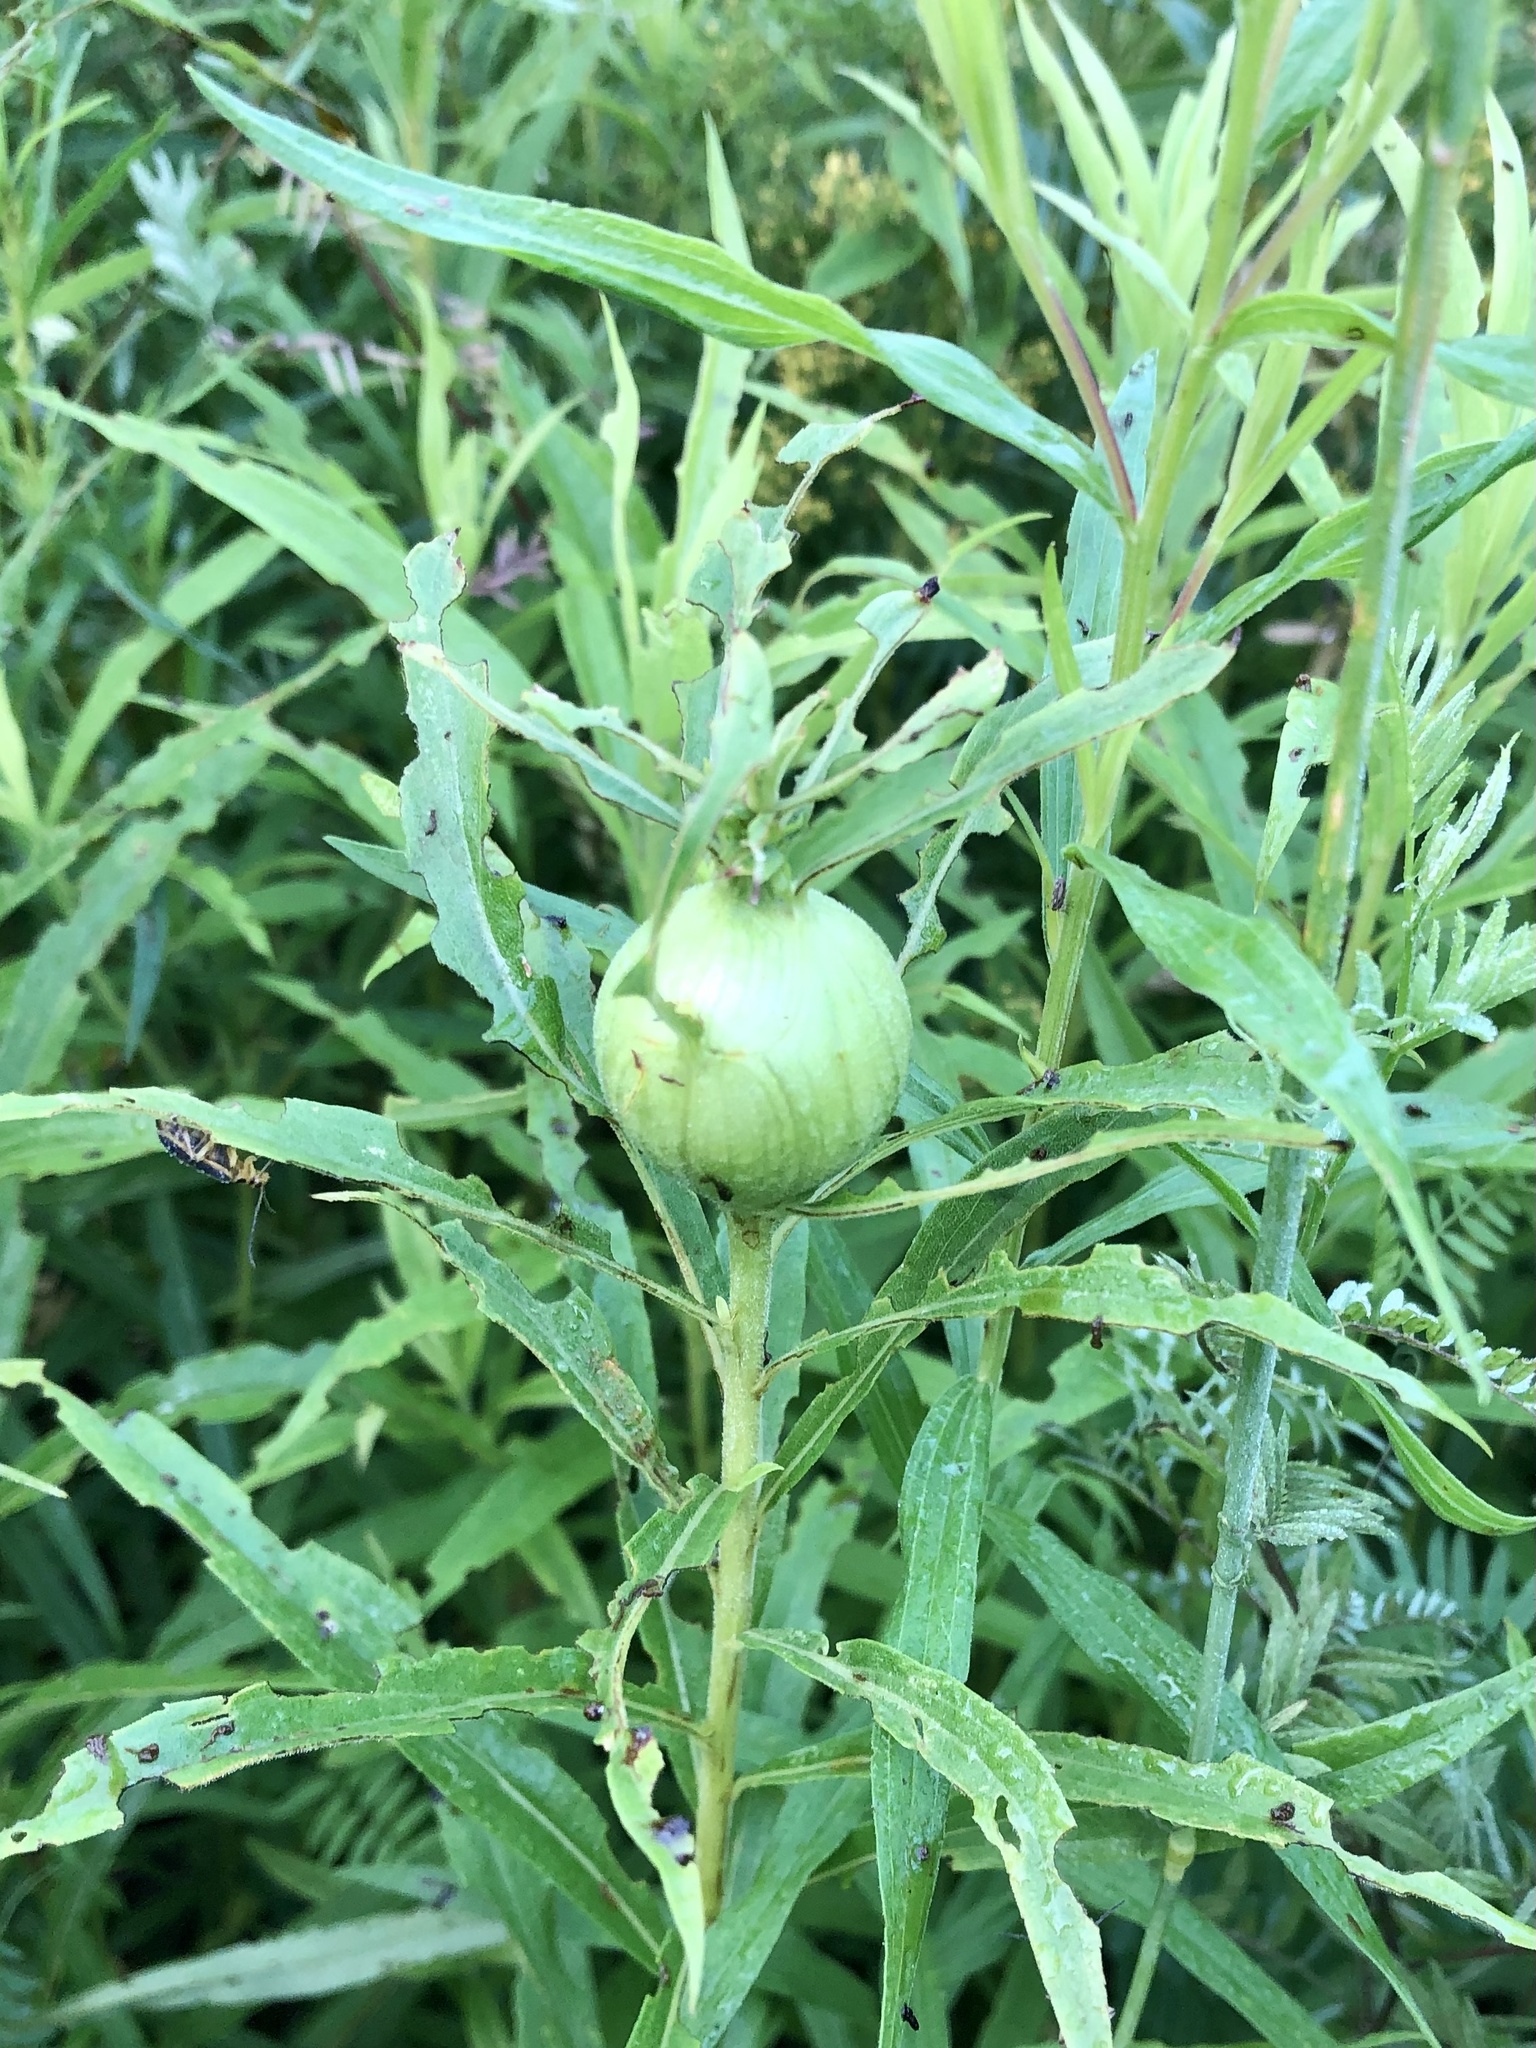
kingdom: Animalia
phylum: Arthropoda
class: Insecta
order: Diptera
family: Tephritidae
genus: Eurosta
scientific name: Eurosta solidaginis
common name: Goldenrod gall fly
